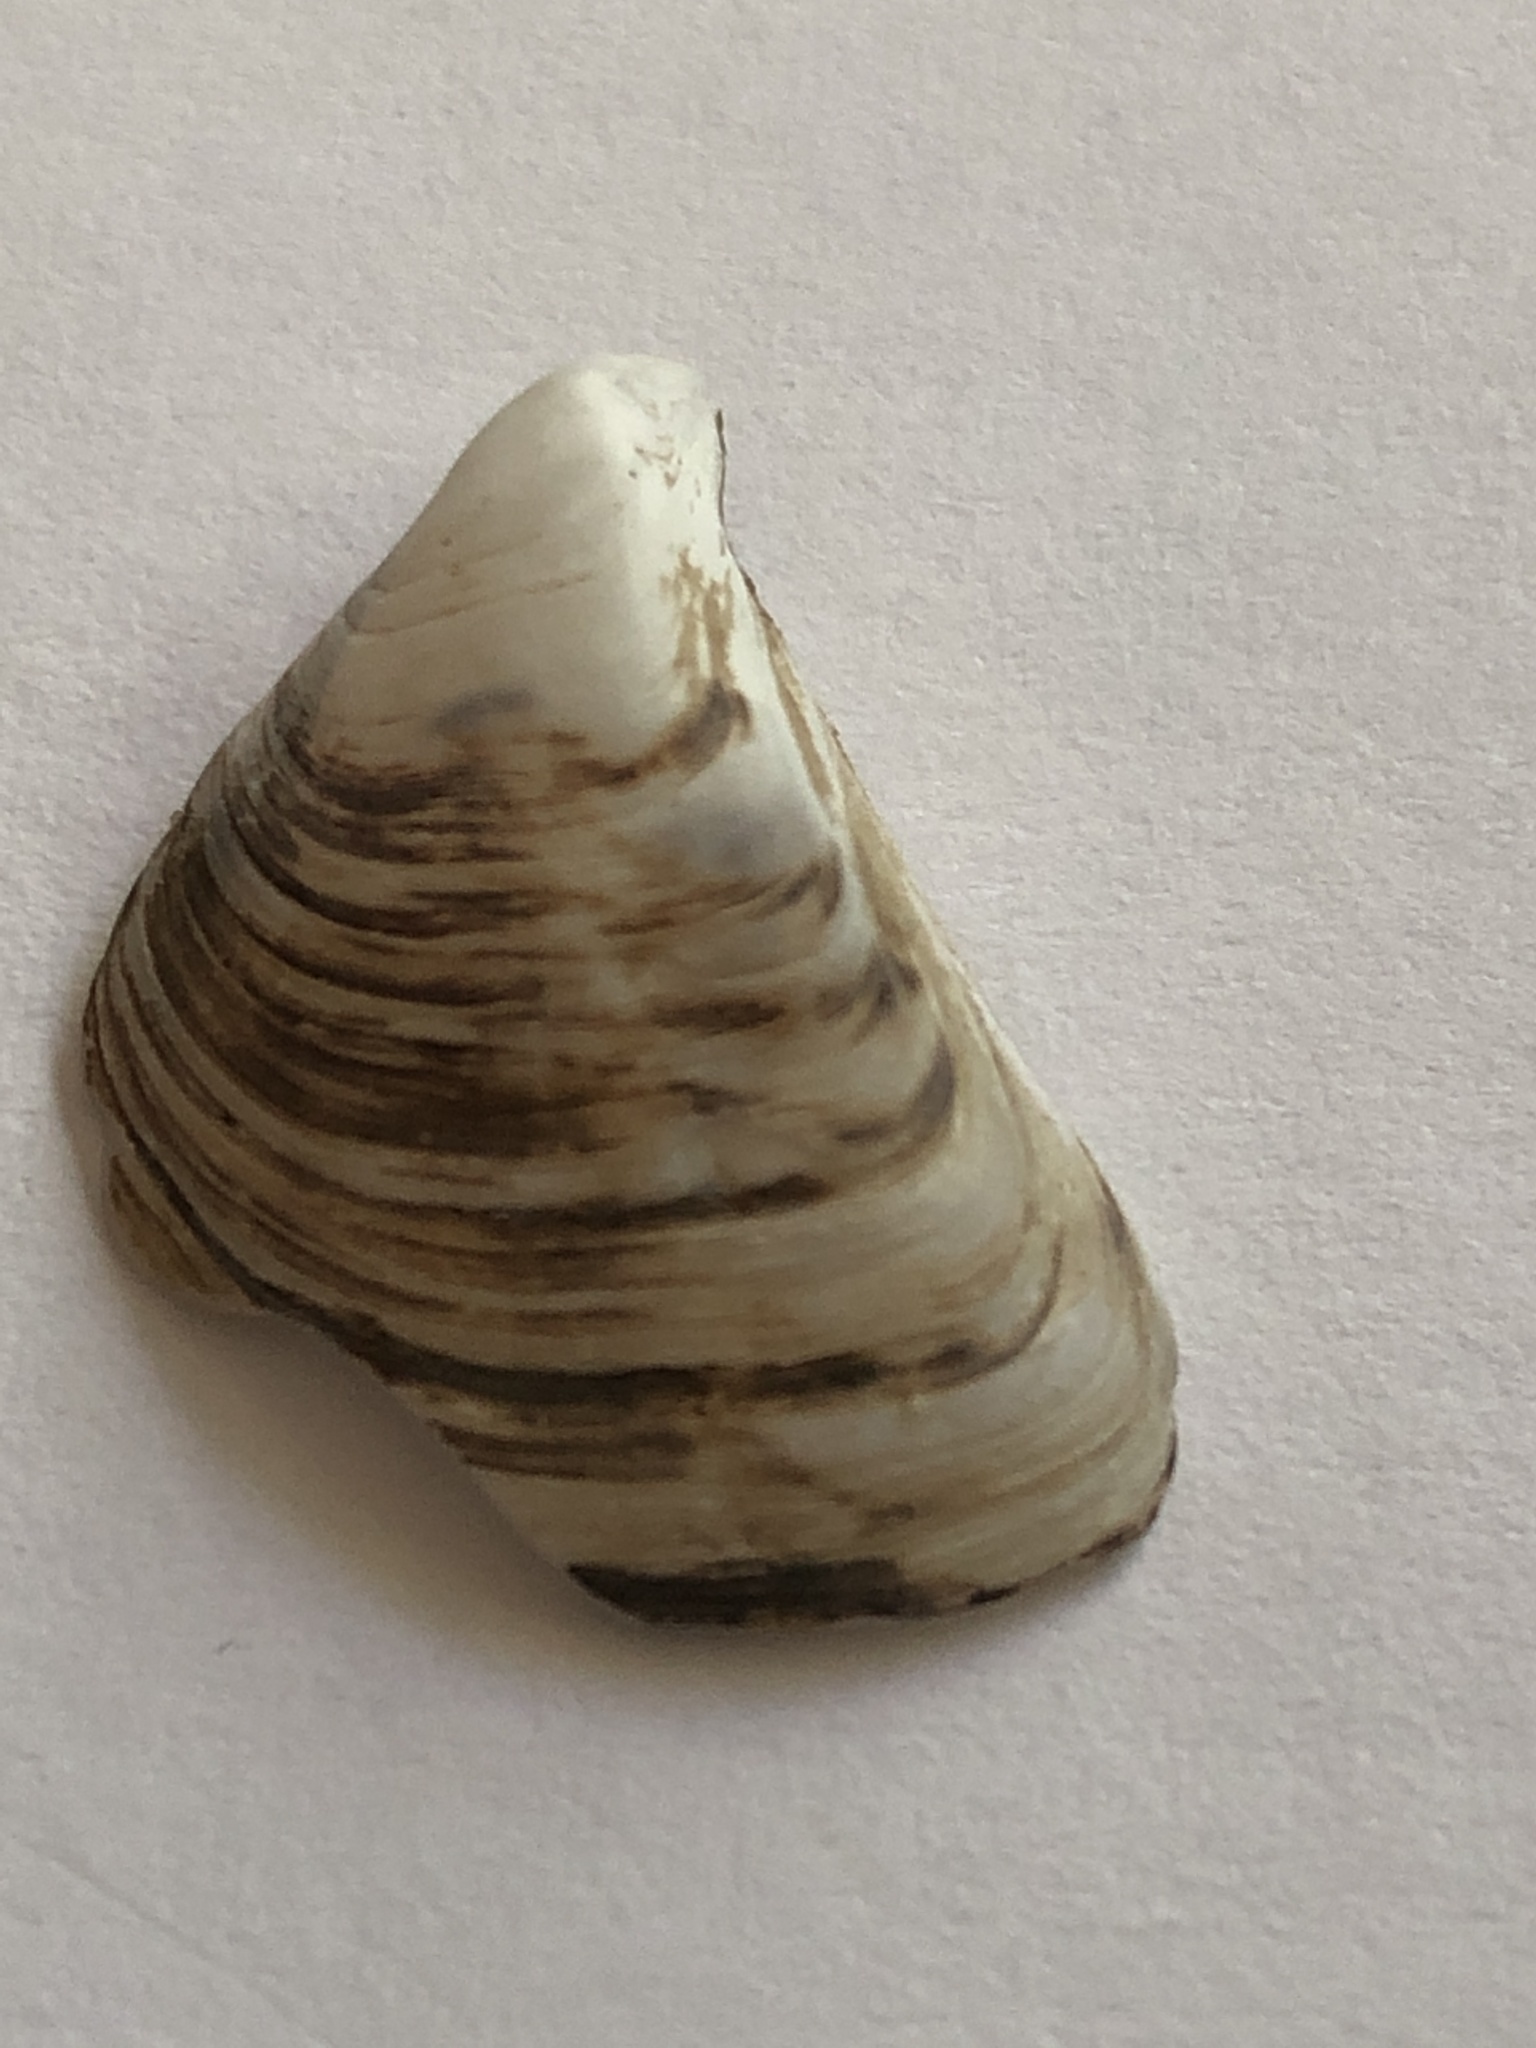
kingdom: Animalia
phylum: Mollusca
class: Bivalvia
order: Myida
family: Dreissenidae
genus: Dreissena
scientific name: Dreissena polymorpha
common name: Zebra mussel
